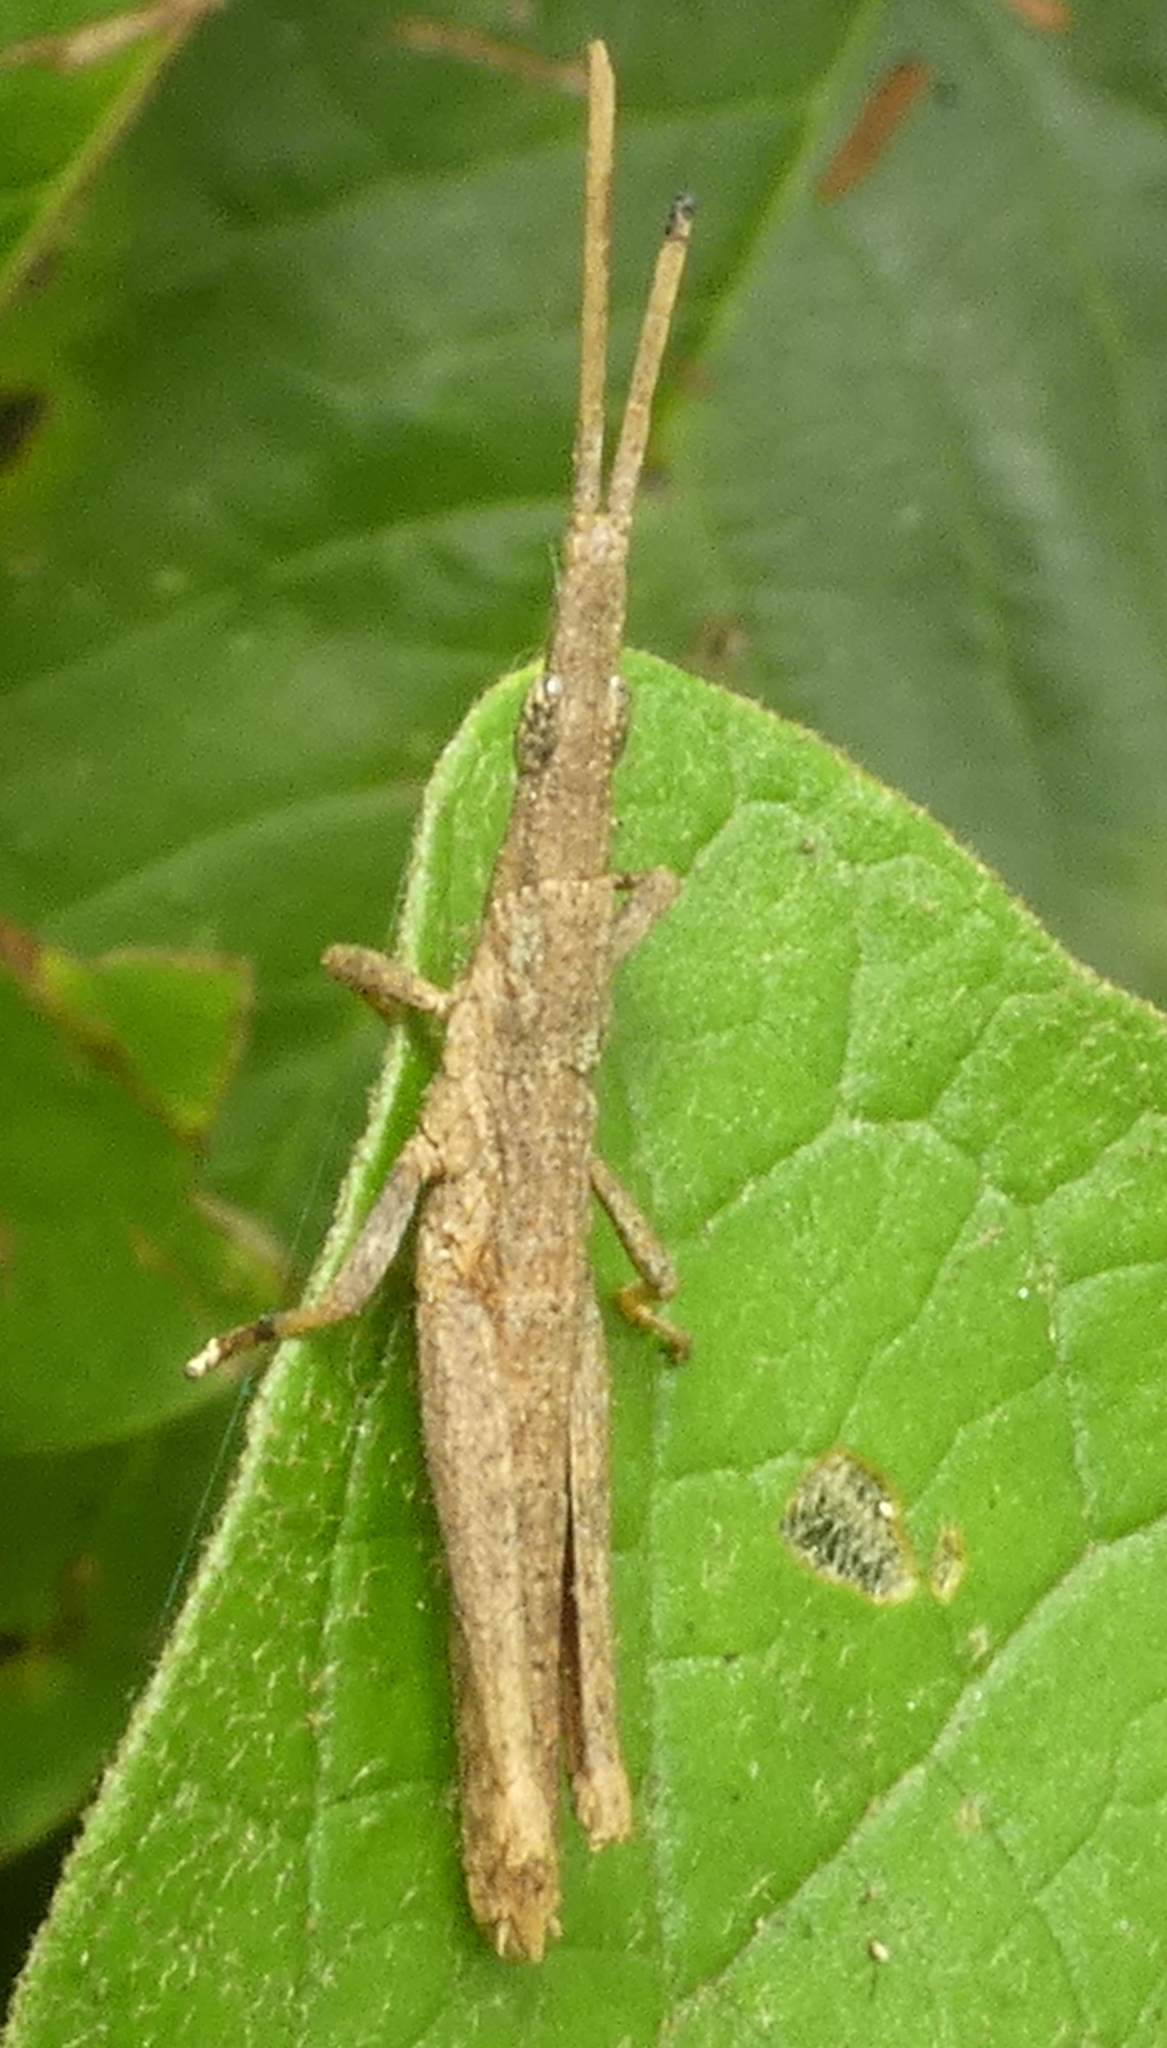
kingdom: Animalia
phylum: Arthropoda
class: Insecta
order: Orthoptera
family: Pyrgomorphidae
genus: Algete
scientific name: Algete brunneri
